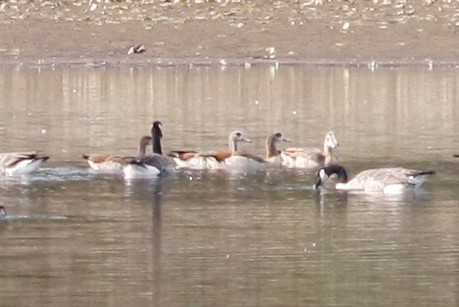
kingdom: Animalia
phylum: Chordata
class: Aves
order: Anseriformes
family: Anatidae
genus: Alopochen
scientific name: Alopochen aegyptiaca
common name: Egyptian goose
